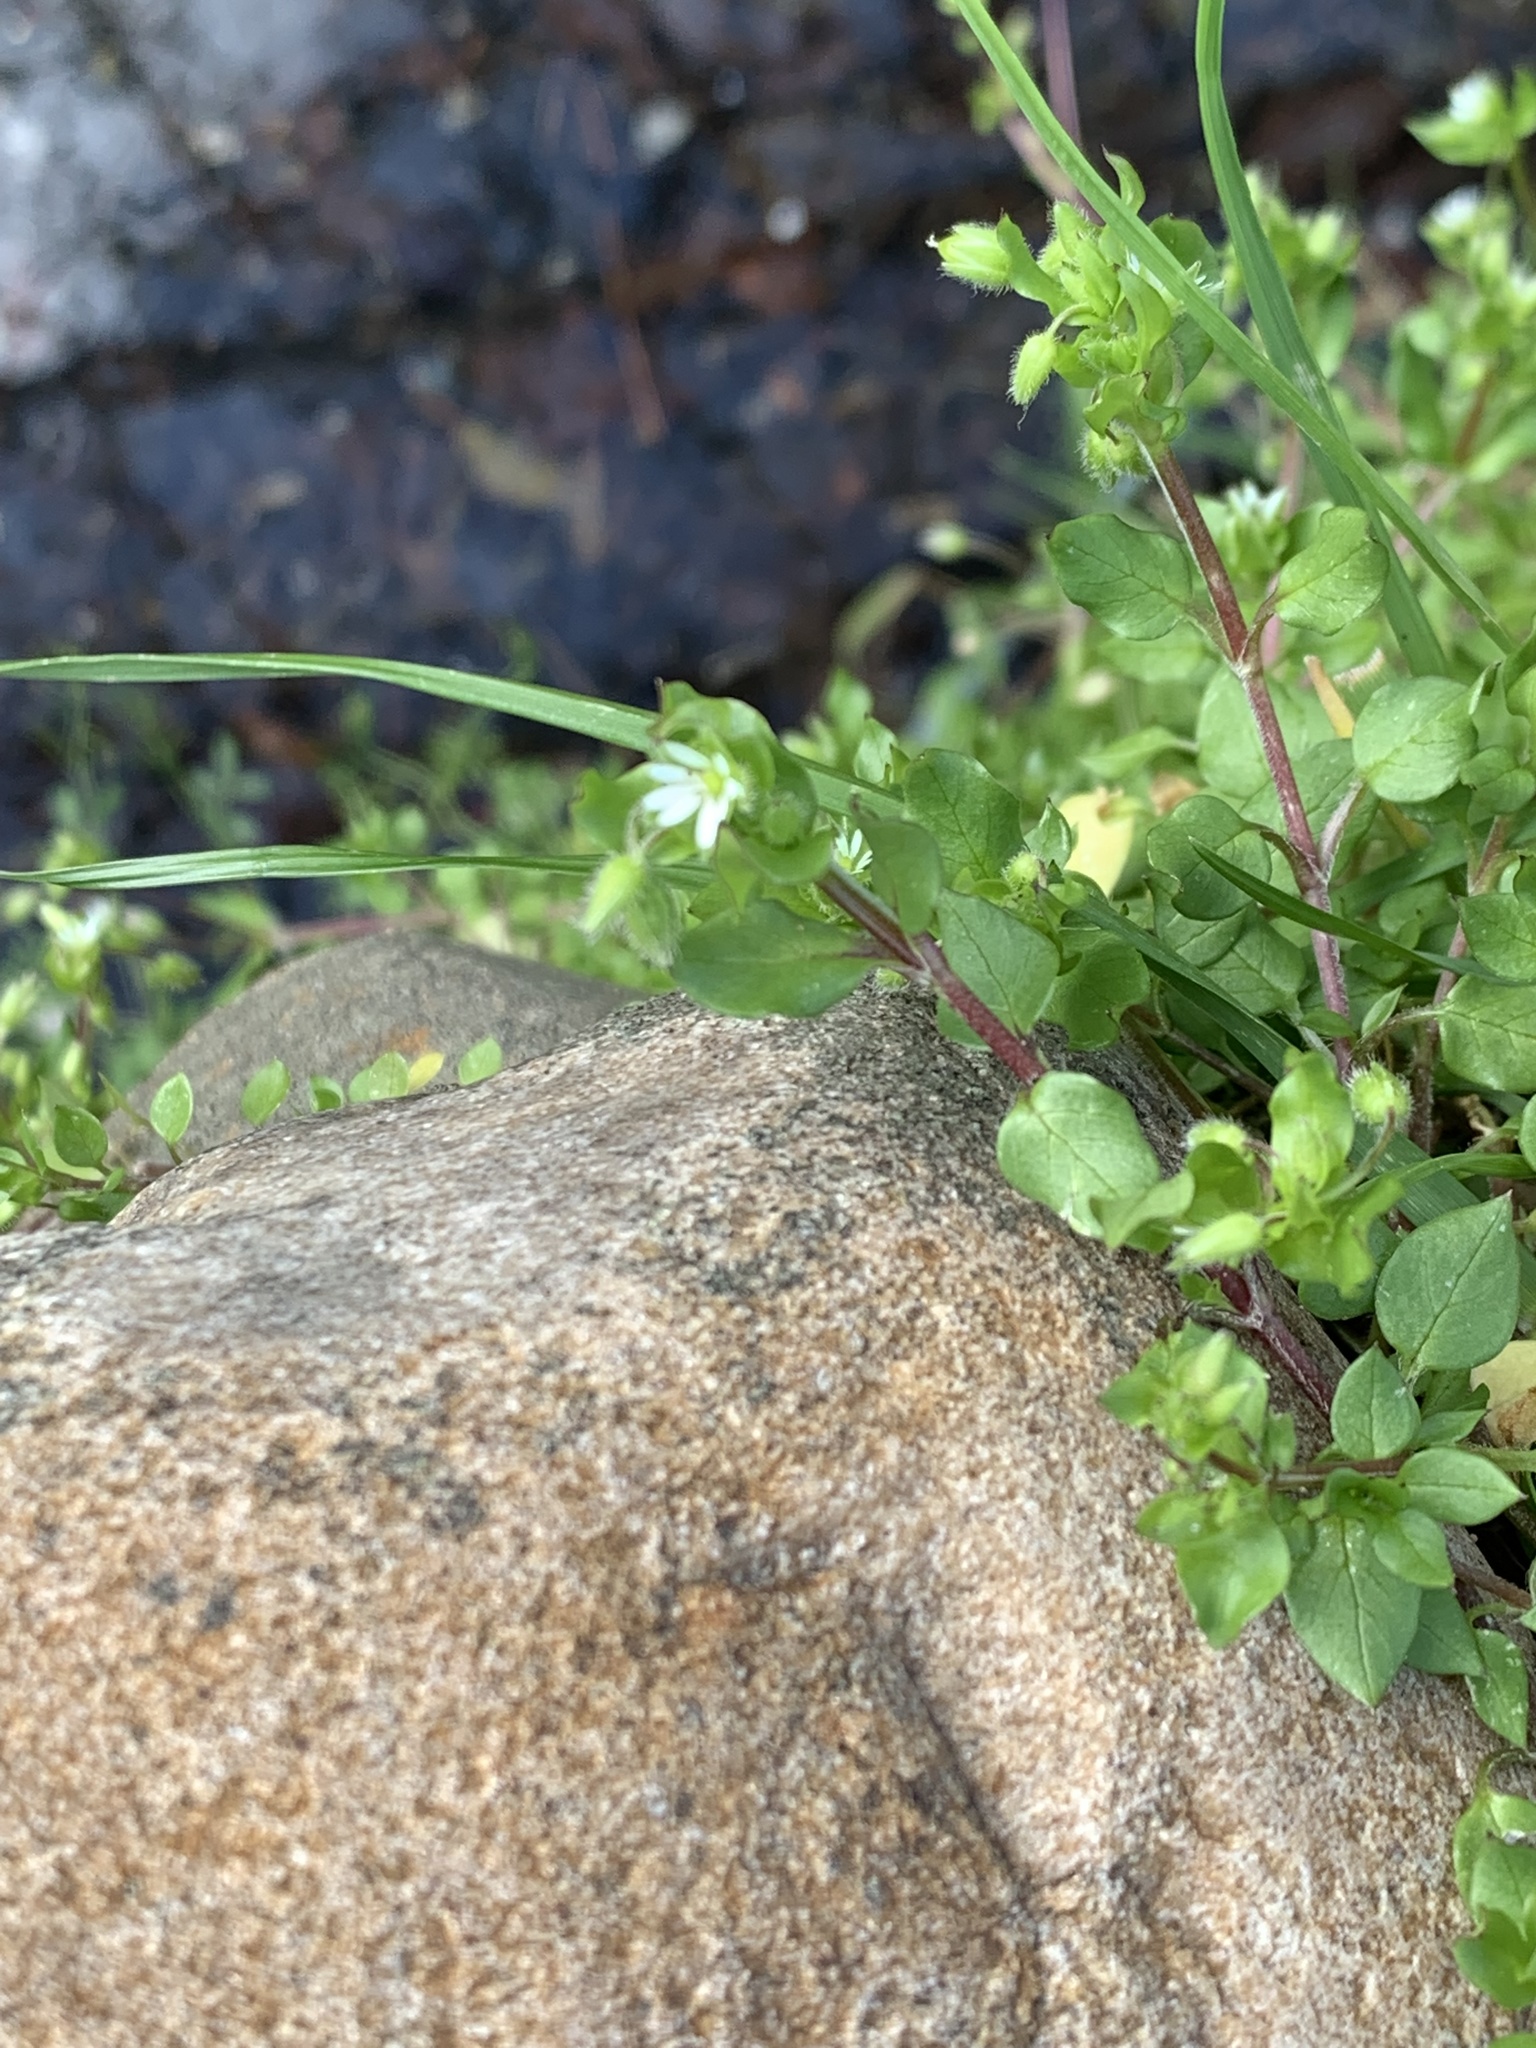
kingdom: Plantae
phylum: Tracheophyta
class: Magnoliopsida
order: Caryophyllales
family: Caryophyllaceae
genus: Stellaria
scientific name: Stellaria media
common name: Common chickweed
